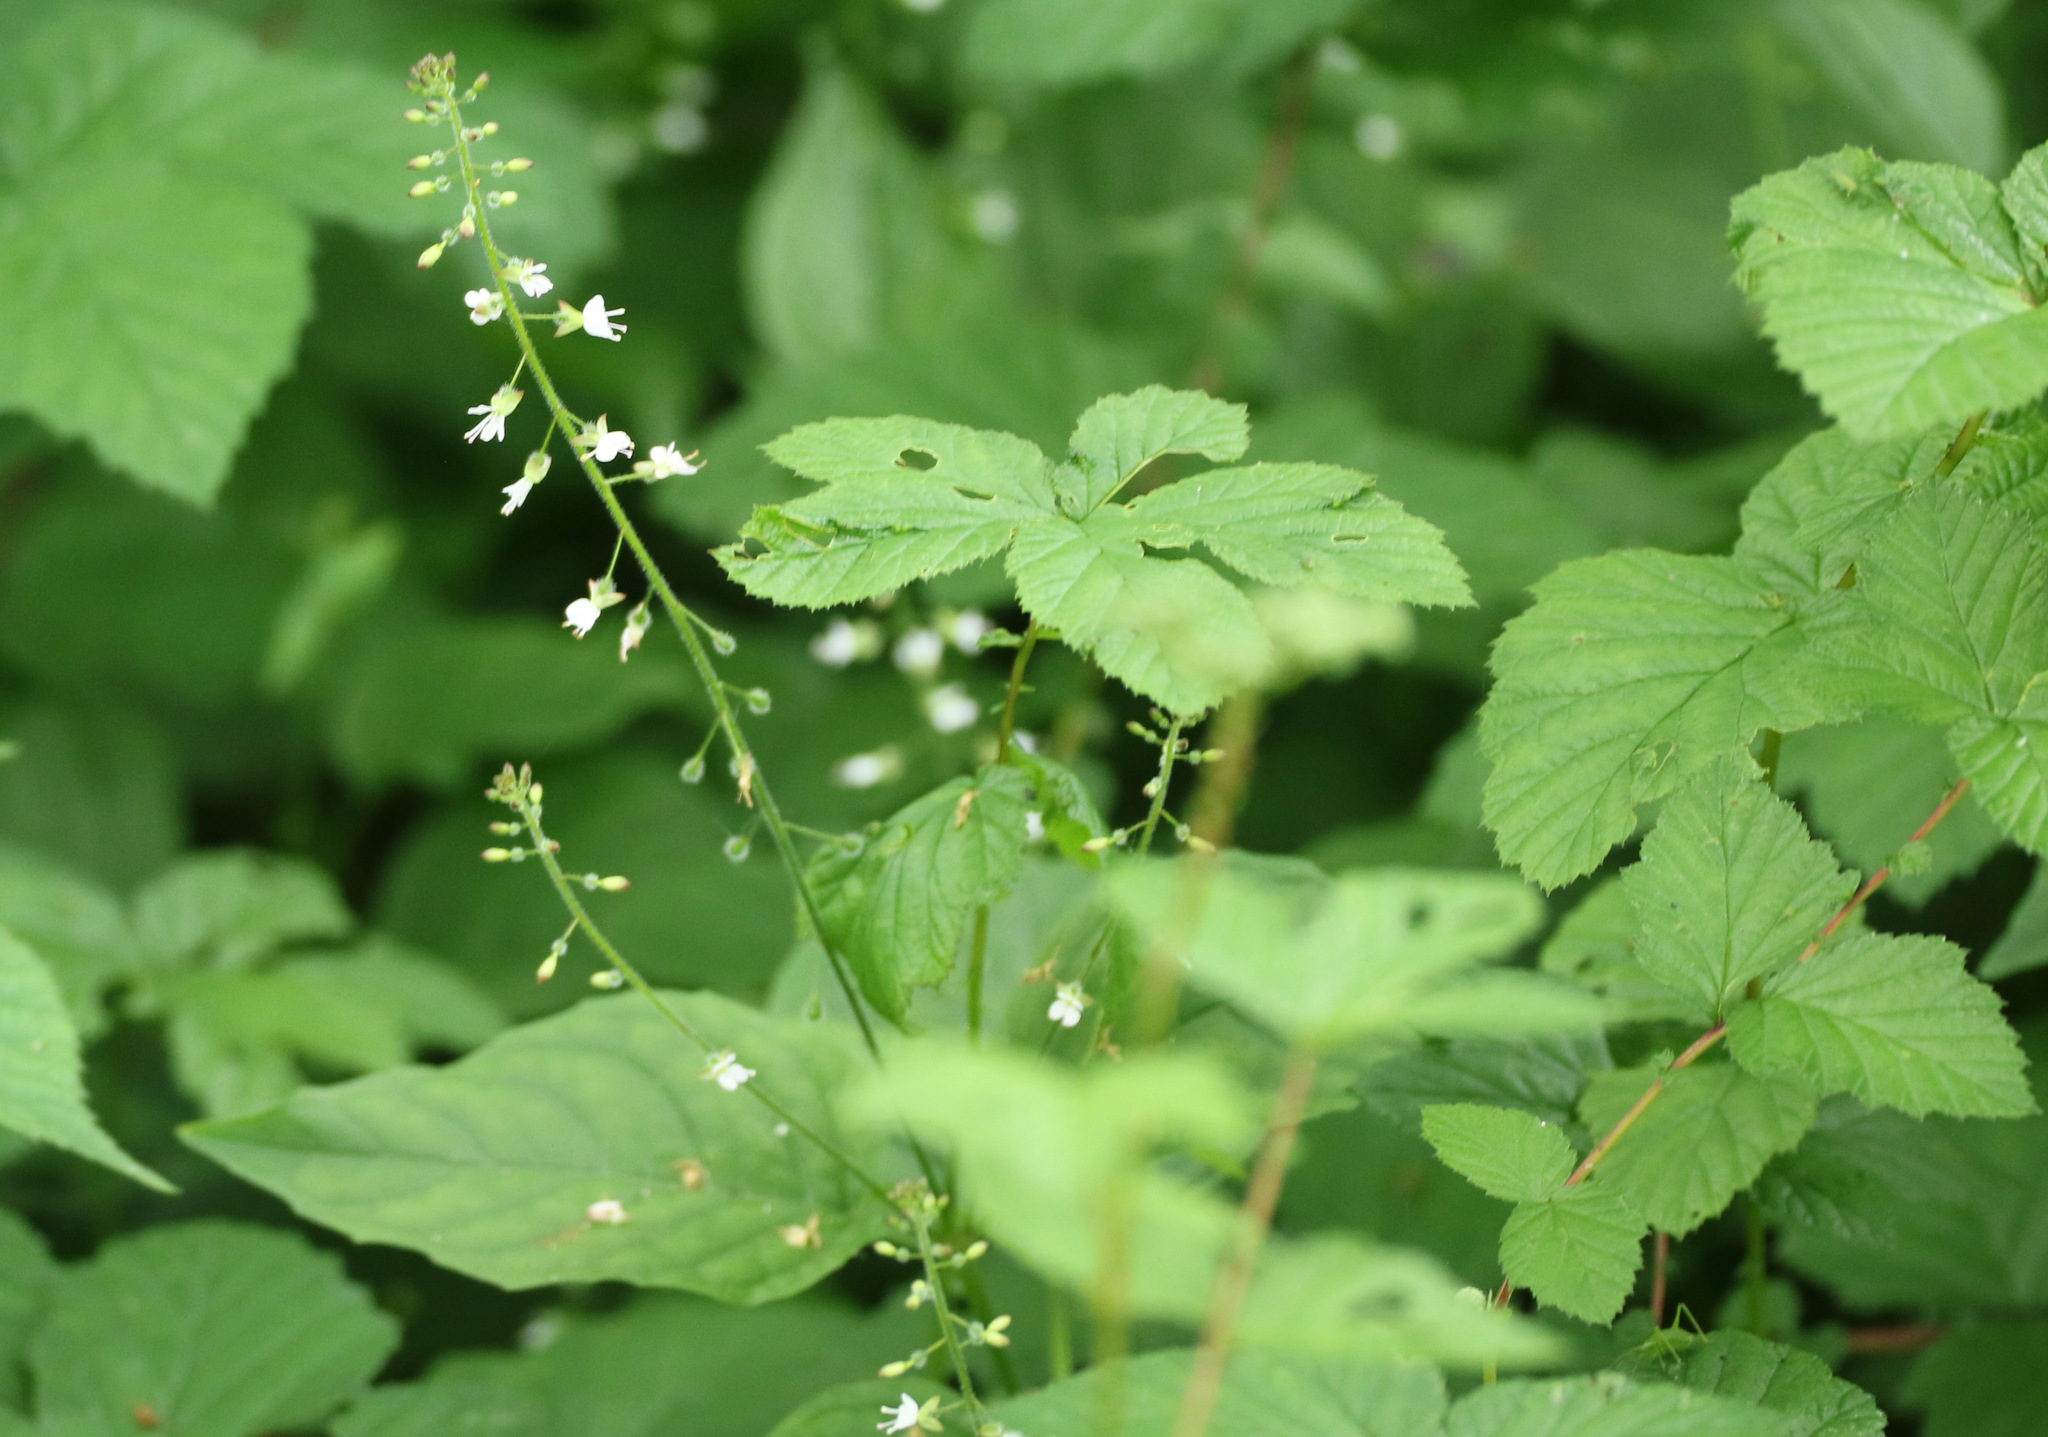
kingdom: Plantae
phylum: Tracheophyta
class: Magnoliopsida
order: Myrtales
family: Onagraceae
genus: Circaea
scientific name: Circaea lutetiana
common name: Enchanter's-nightshade
